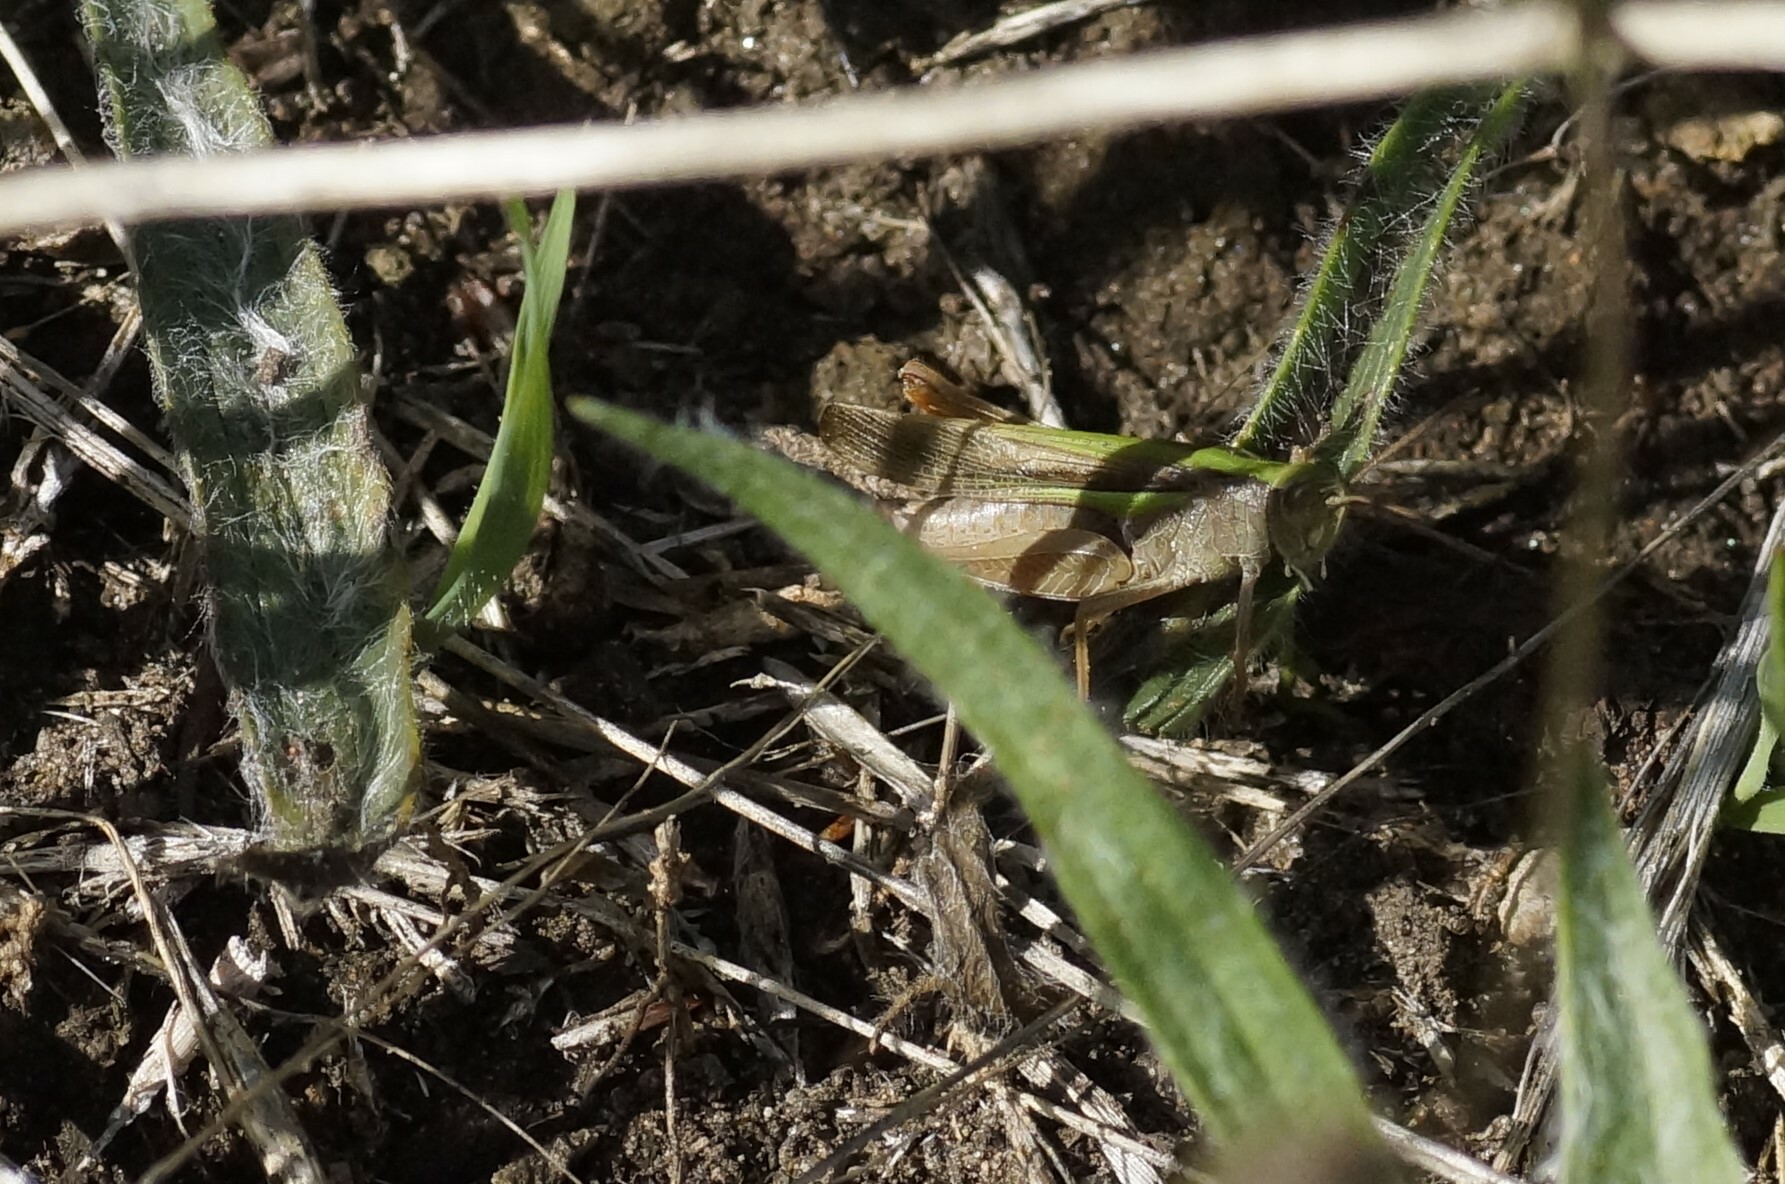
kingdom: Animalia
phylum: Arthropoda
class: Insecta
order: Orthoptera
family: Acrididae
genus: Schizobothrus
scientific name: Schizobothrus flavovittatus
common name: Disappearing grasshopper
